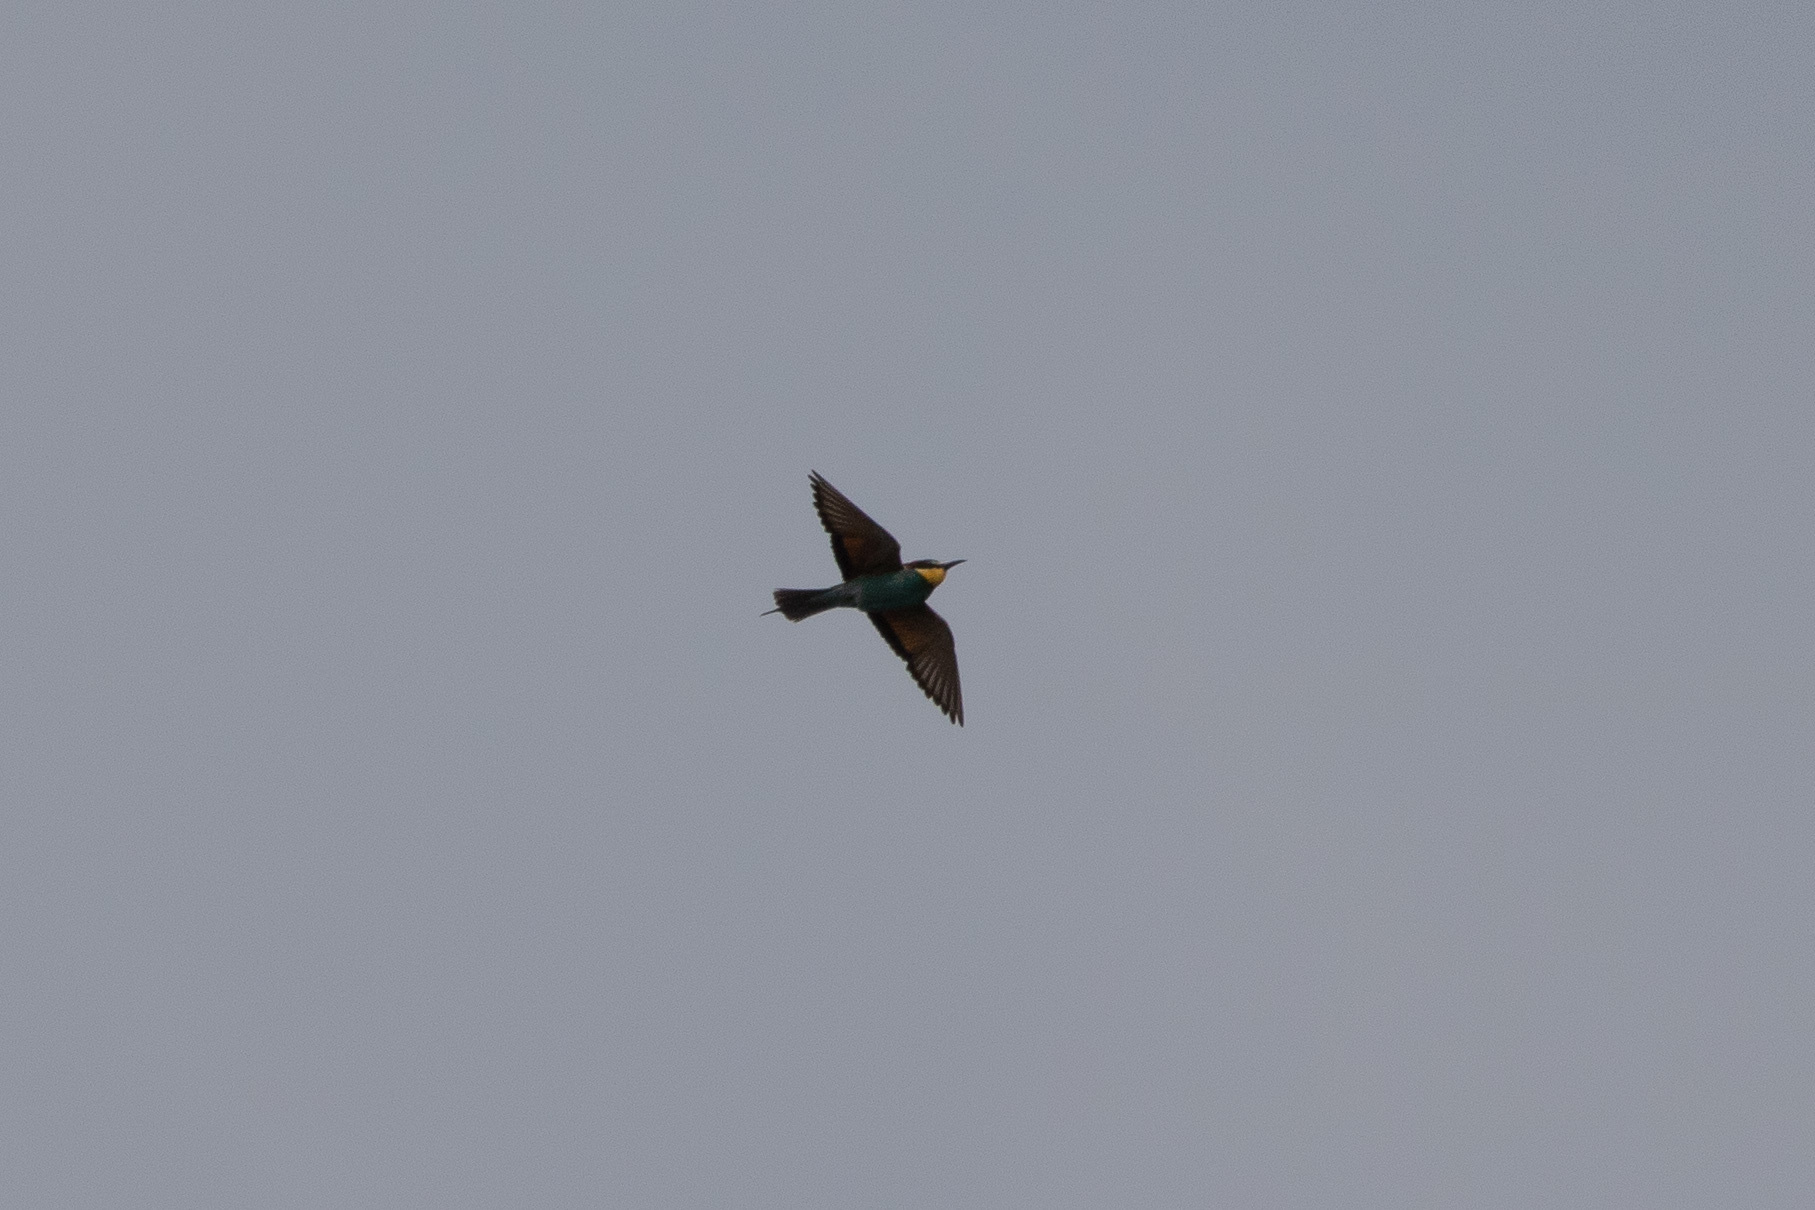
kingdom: Animalia
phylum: Chordata
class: Aves
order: Coraciiformes
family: Meropidae
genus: Merops
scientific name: Merops apiaster
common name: European bee-eater
